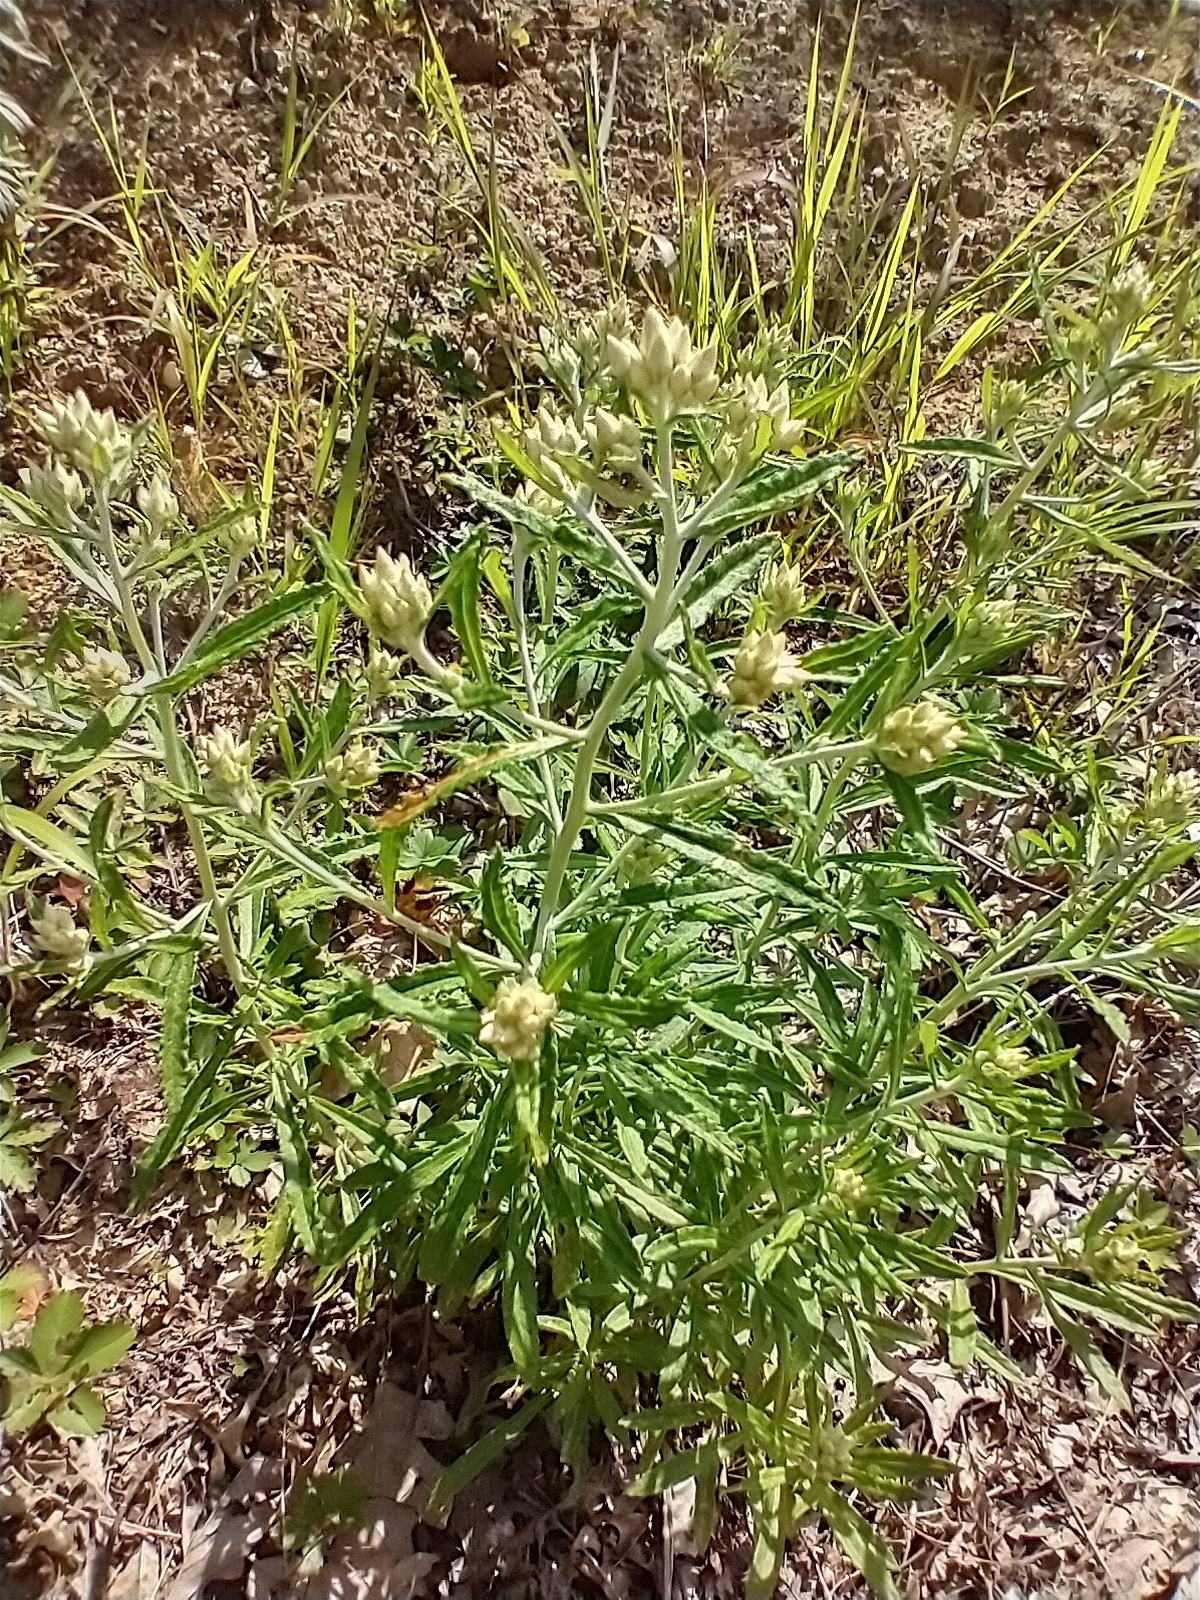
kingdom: Plantae
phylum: Tracheophyta
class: Magnoliopsida
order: Asterales
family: Asteraceae
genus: Pseudognaphalium
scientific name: Pseudognaphalium obtusifolium
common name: Eastern rabbit-tobacco
